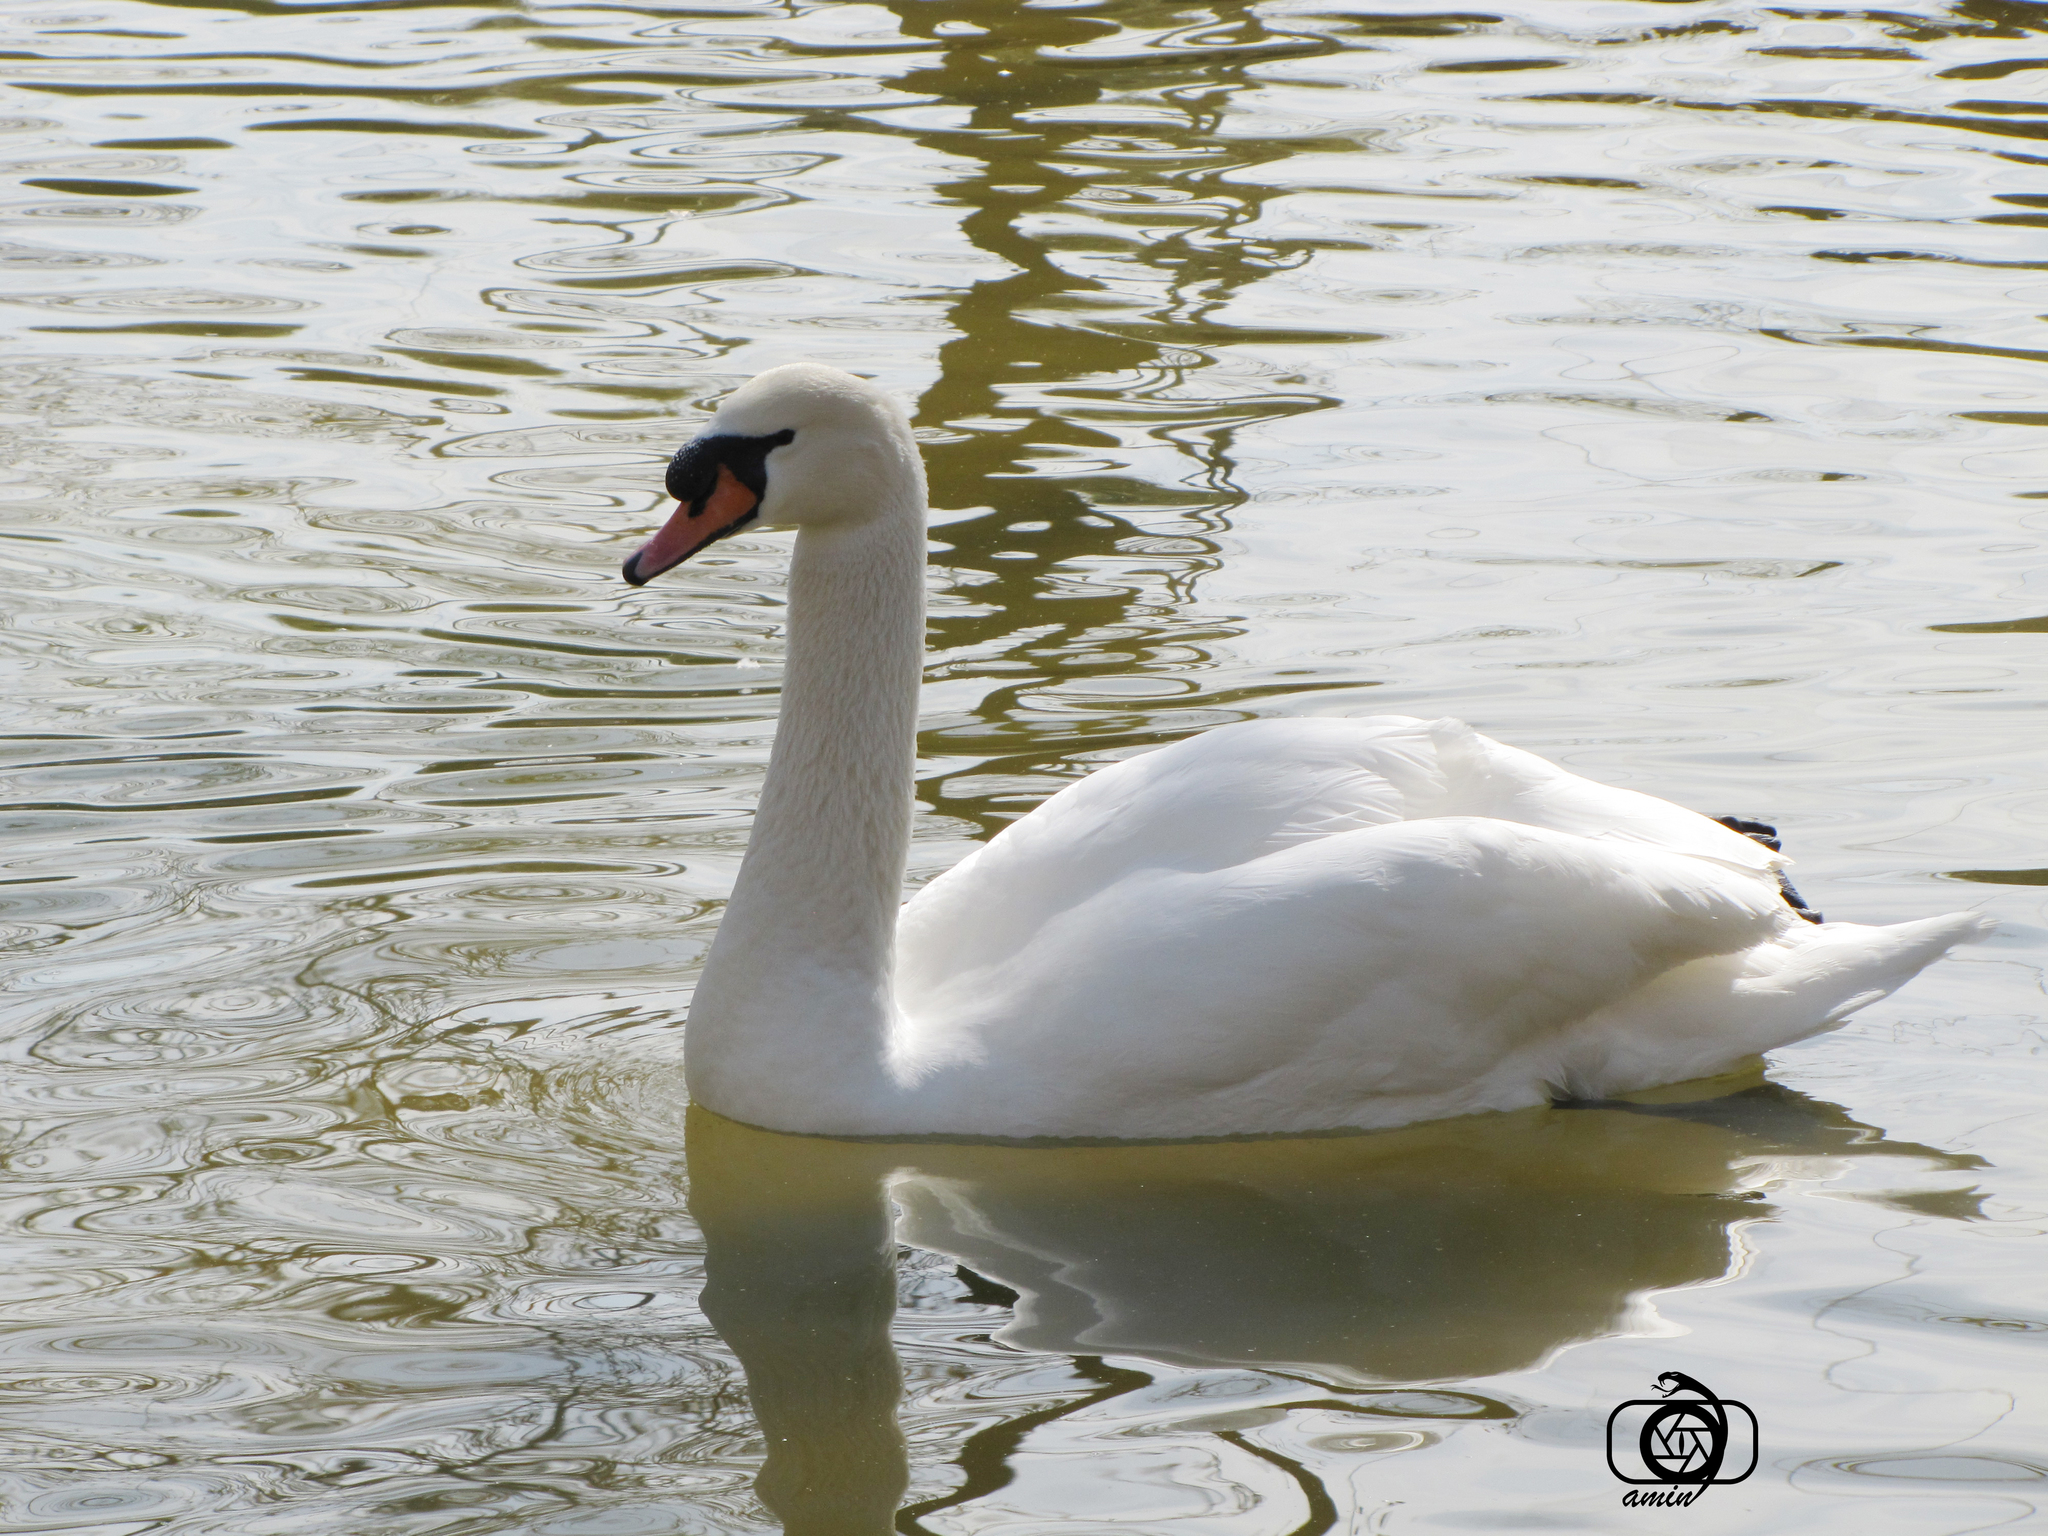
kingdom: Animalia
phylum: Chordata
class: Aves
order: Anseriformes
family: Anatidae
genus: Cygnus
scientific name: Cygnus olor
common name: Mute swan
